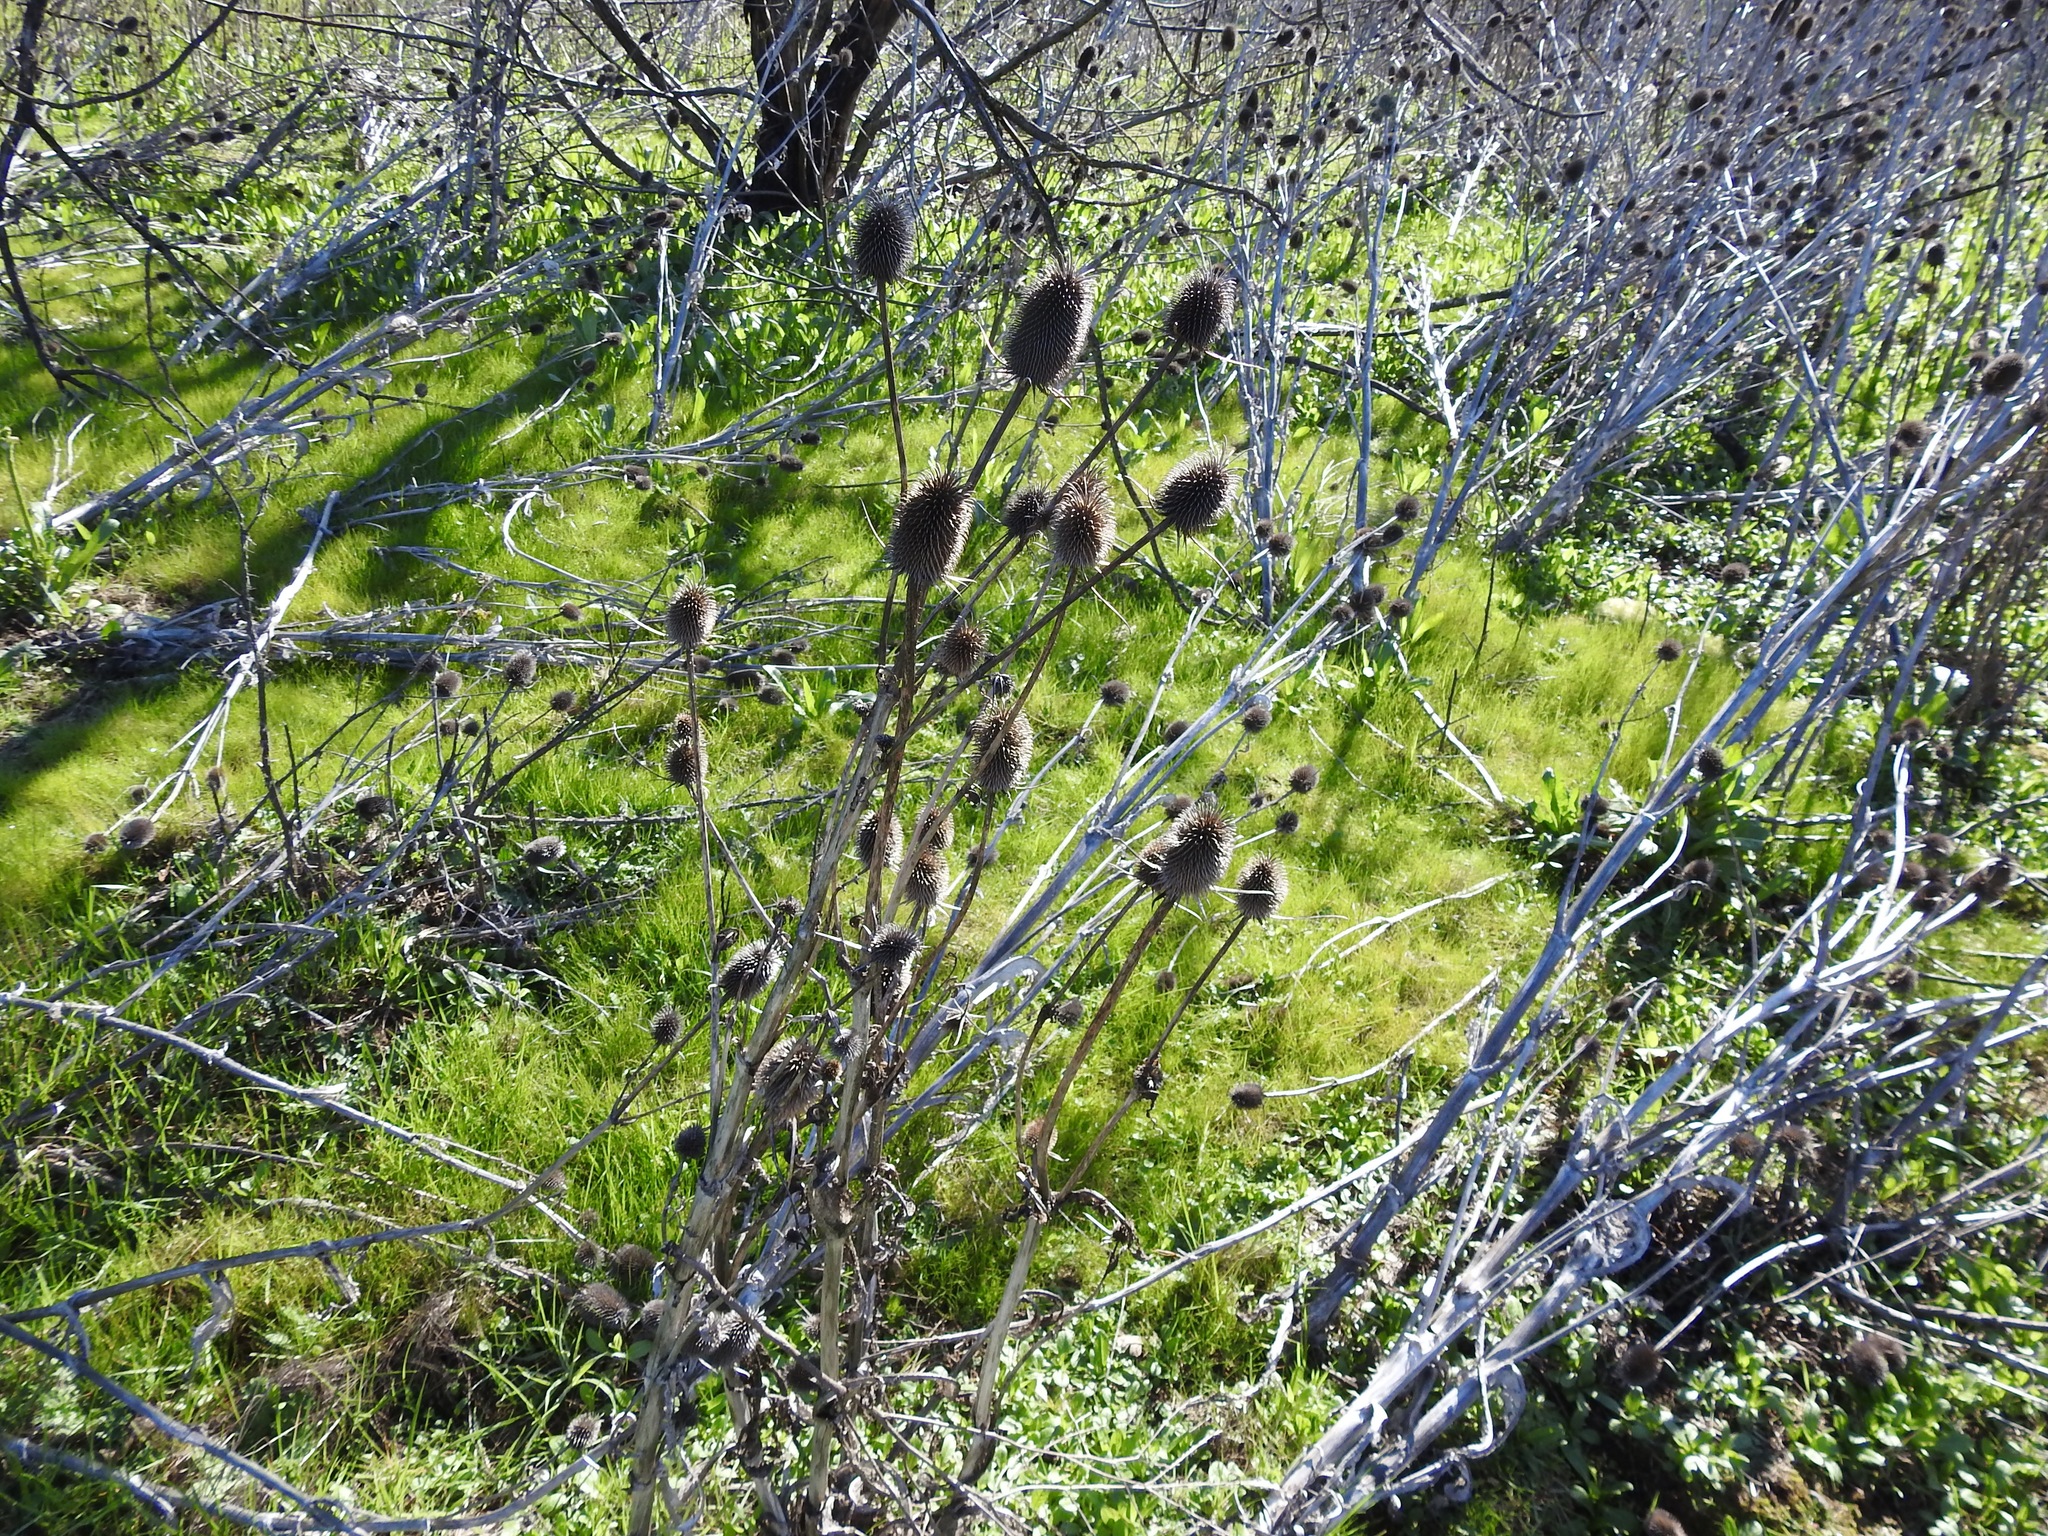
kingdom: Plantae
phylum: Tracheophyta
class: Magnoliopsida
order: Dipsacales
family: Caprifoliaceae
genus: Dipsacus
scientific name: Dipsacus sativus
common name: Fuller's teasel
